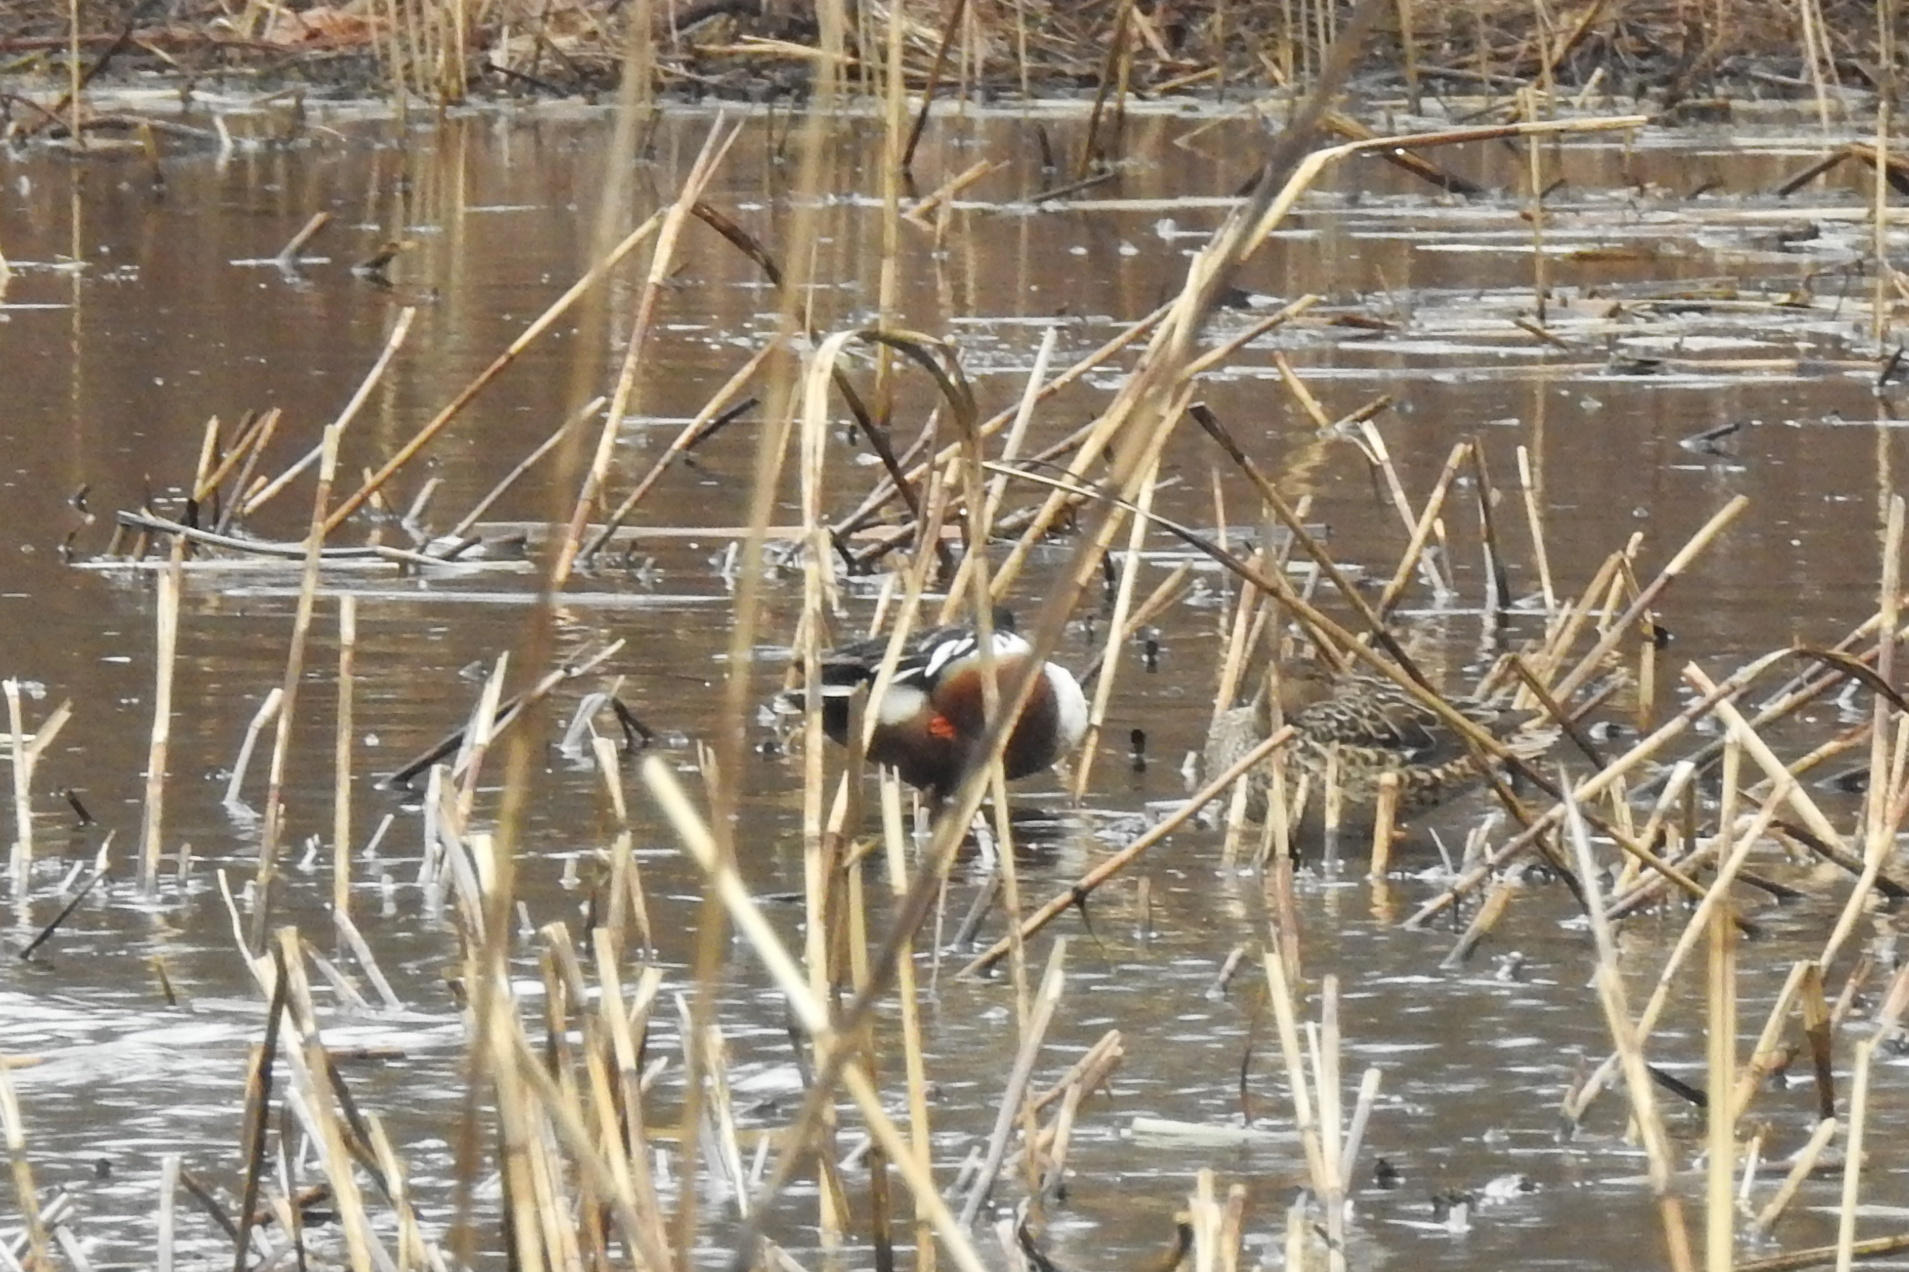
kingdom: Animalia
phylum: Chordata
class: Aves
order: Anseriformes
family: Anatidae
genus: Spatula
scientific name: Spatula clypeata
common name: Northern shoveler
